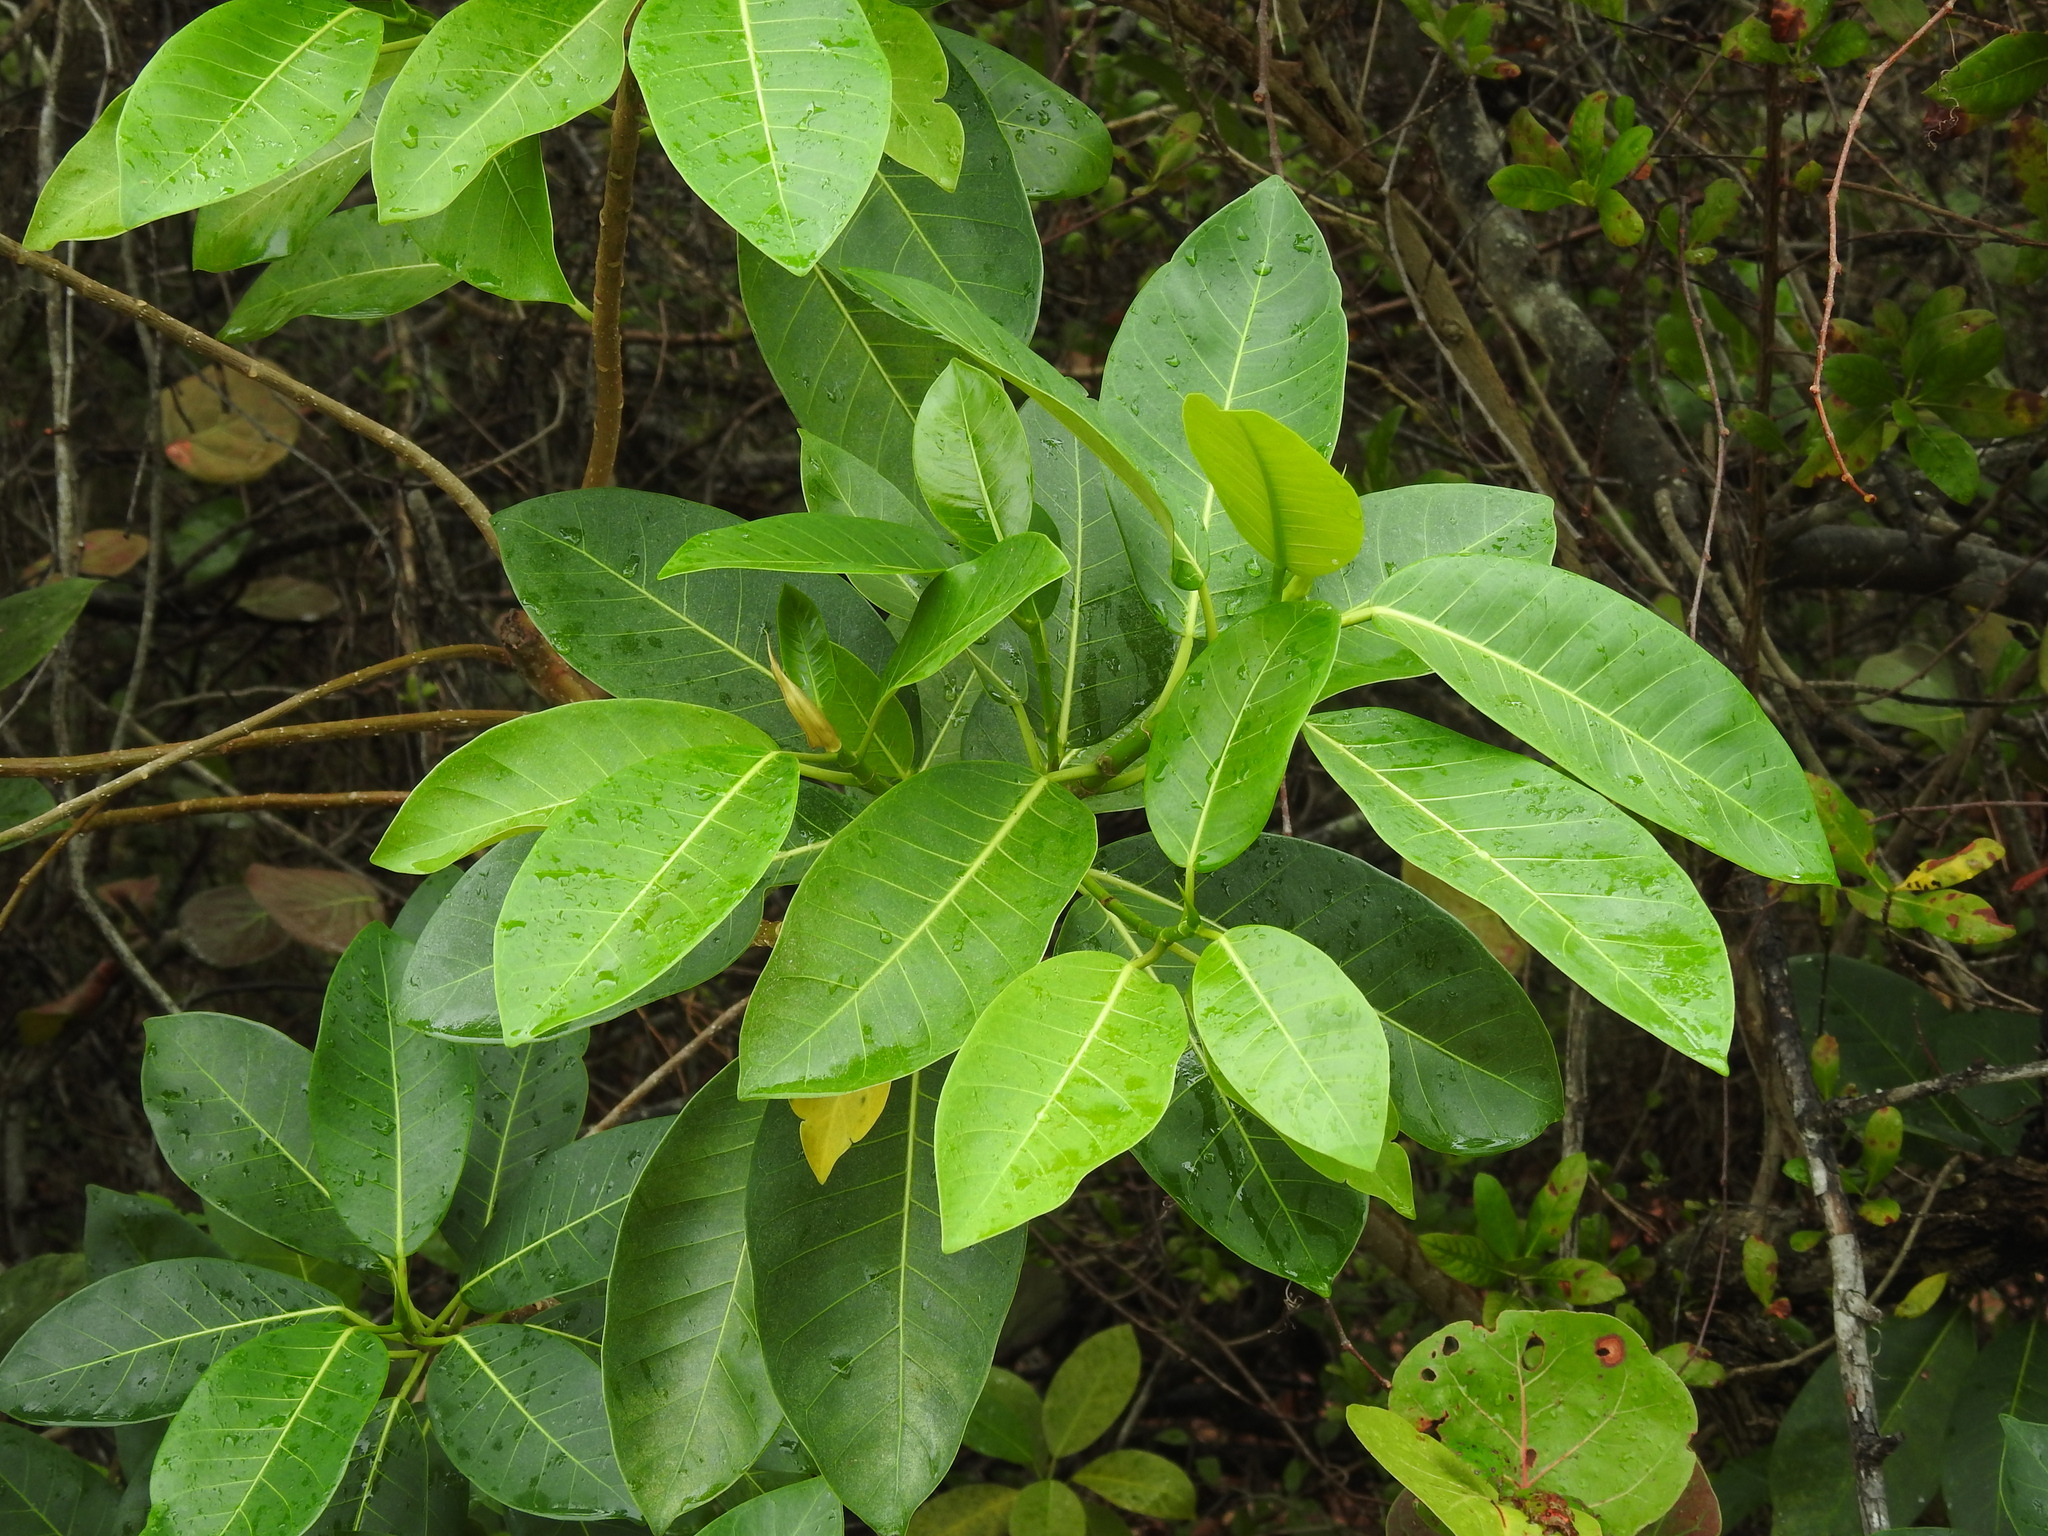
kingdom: Plantae
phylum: Tracheophyta
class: Magnoliopsida
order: Rosales
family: Moraceae
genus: Ficus
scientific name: Ficus aurea
